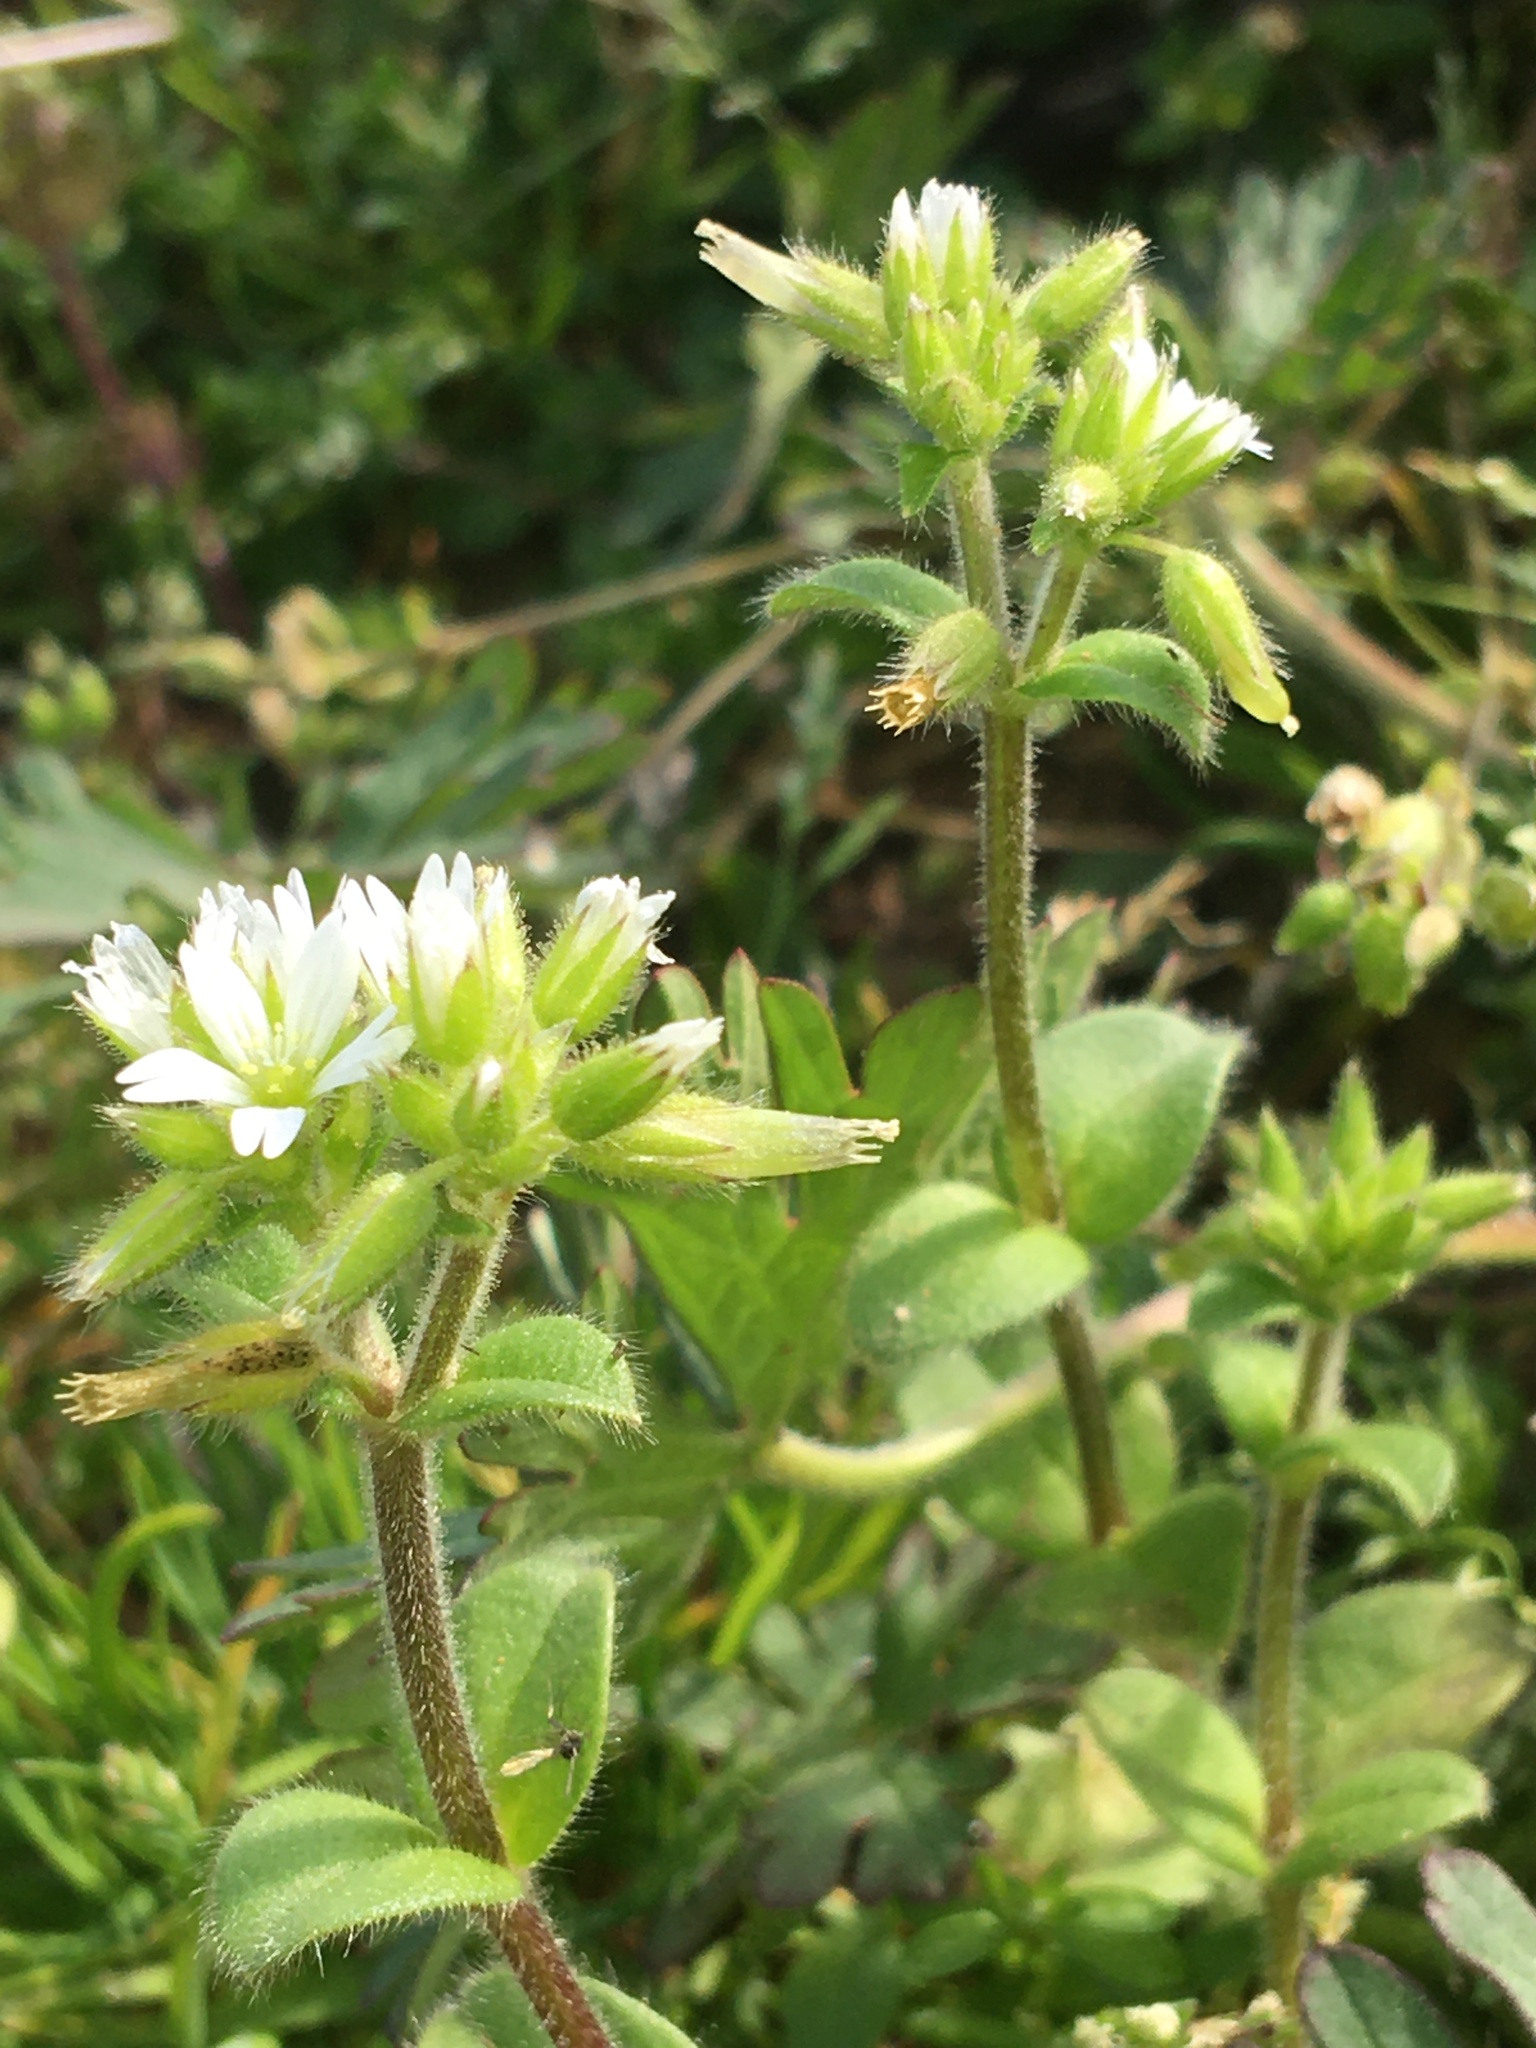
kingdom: Plantae
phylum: Tracheophyta
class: Magnoliopsida
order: Caryophyllales
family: Caryophyllaceae
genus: Cerastium
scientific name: Cerastium glomeratum
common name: Sticky chickweed
